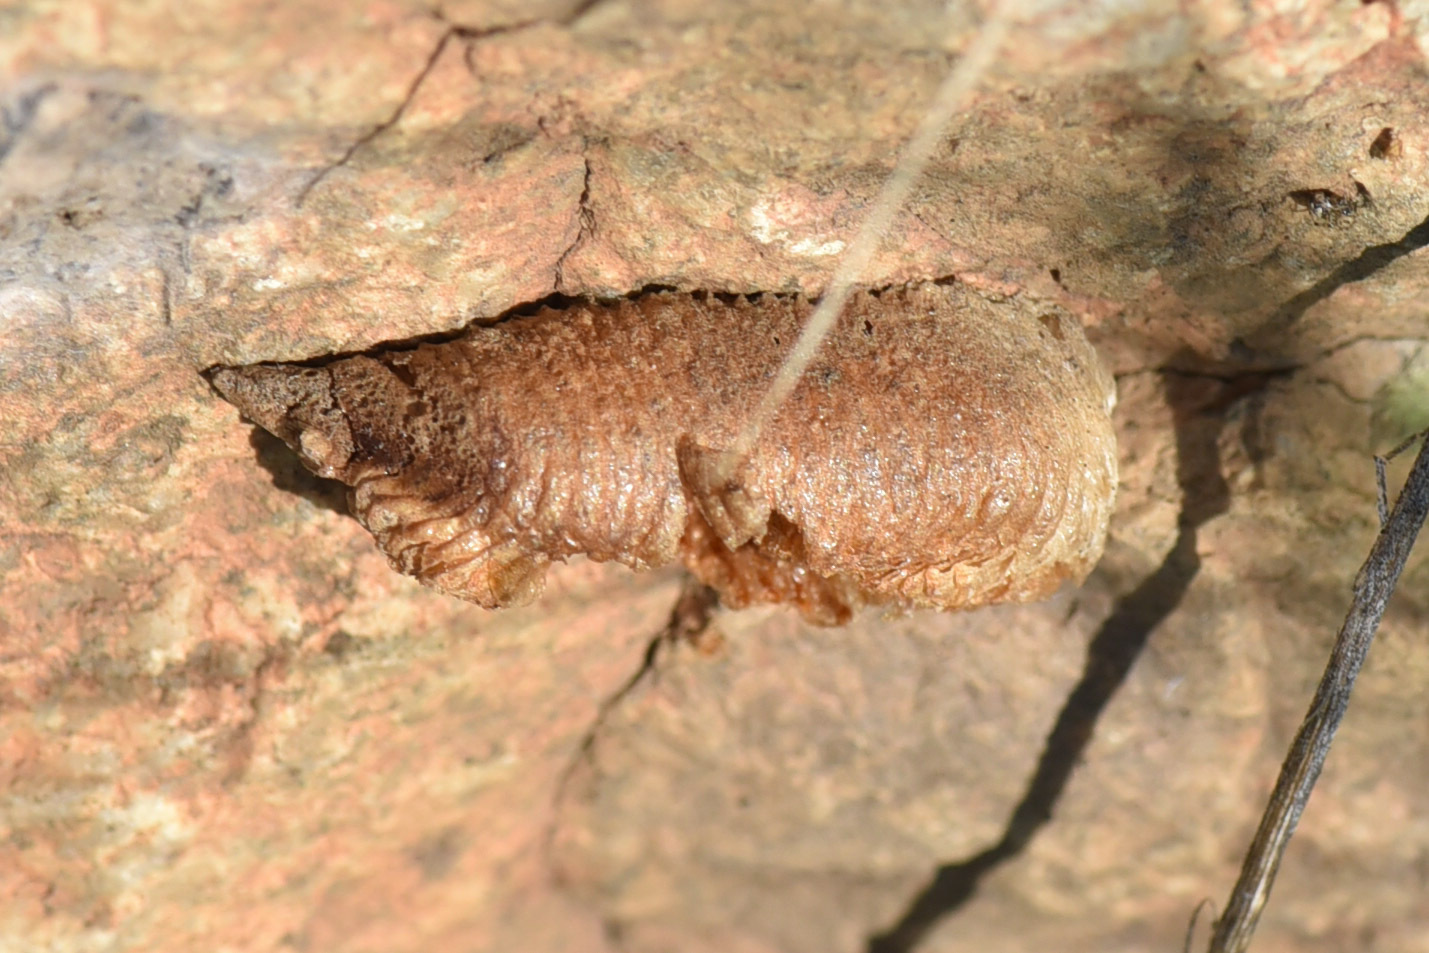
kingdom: Animalia
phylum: Arthropoda
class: Insecta
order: Mantodea
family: Mantidae
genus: Mantis
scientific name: Mantis religiosa
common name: Praying mantis
